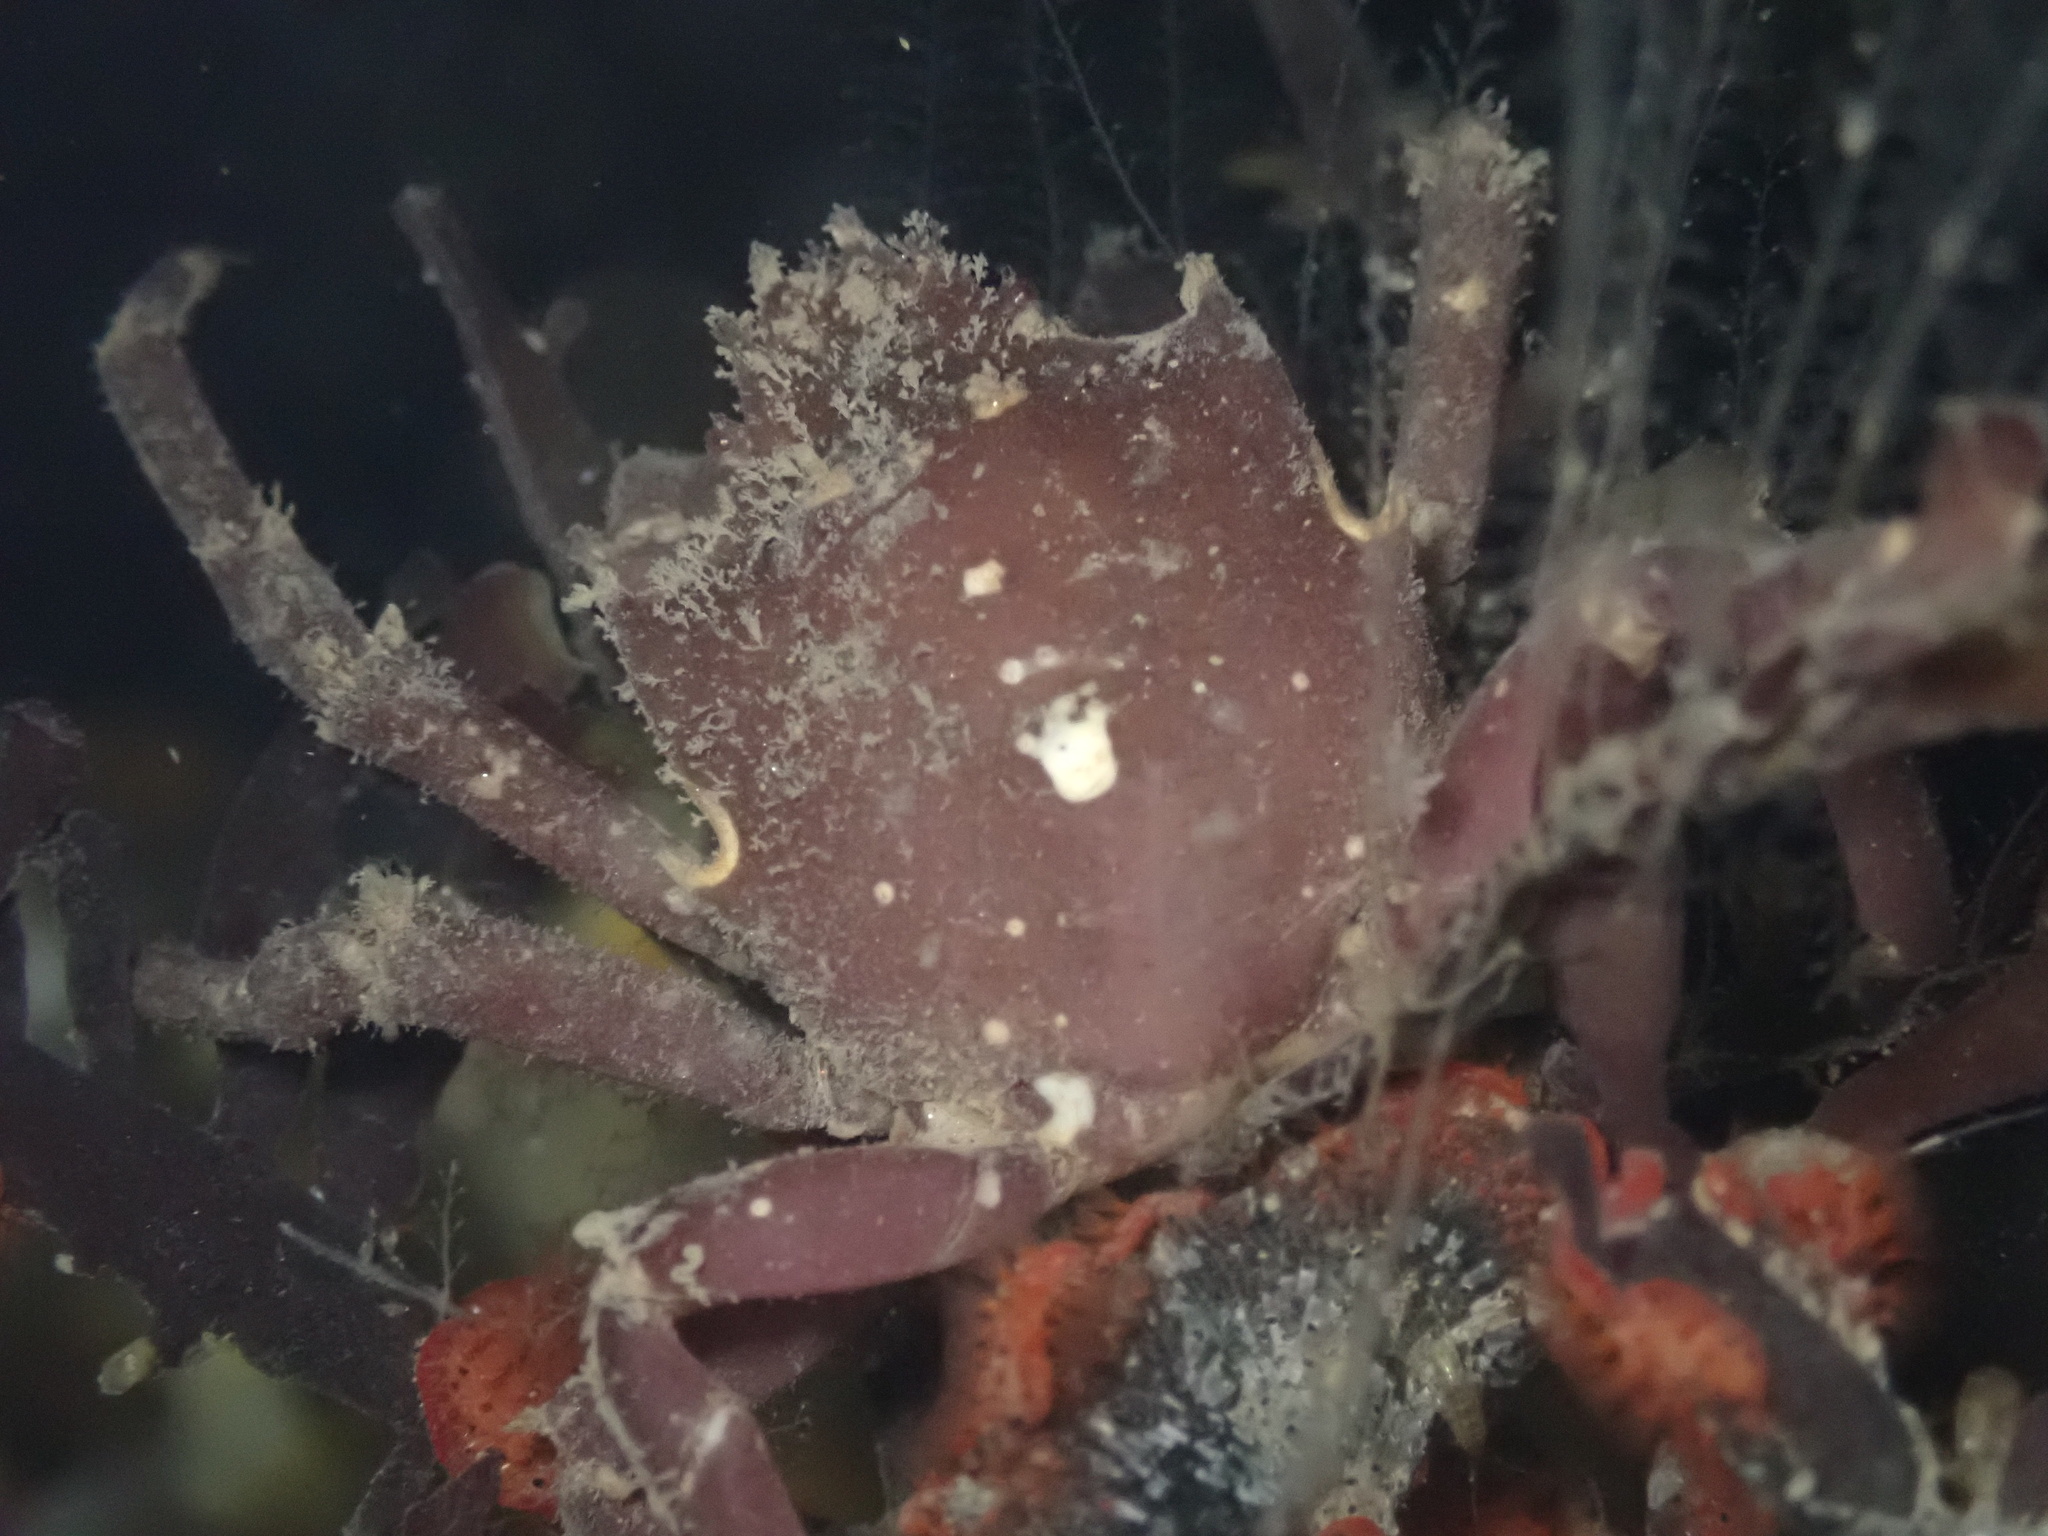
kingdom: Animalia
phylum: Arthropoda
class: Malacostraca
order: Decapoda
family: Epialtidae
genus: Pugettia
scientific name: Pugettia producta
